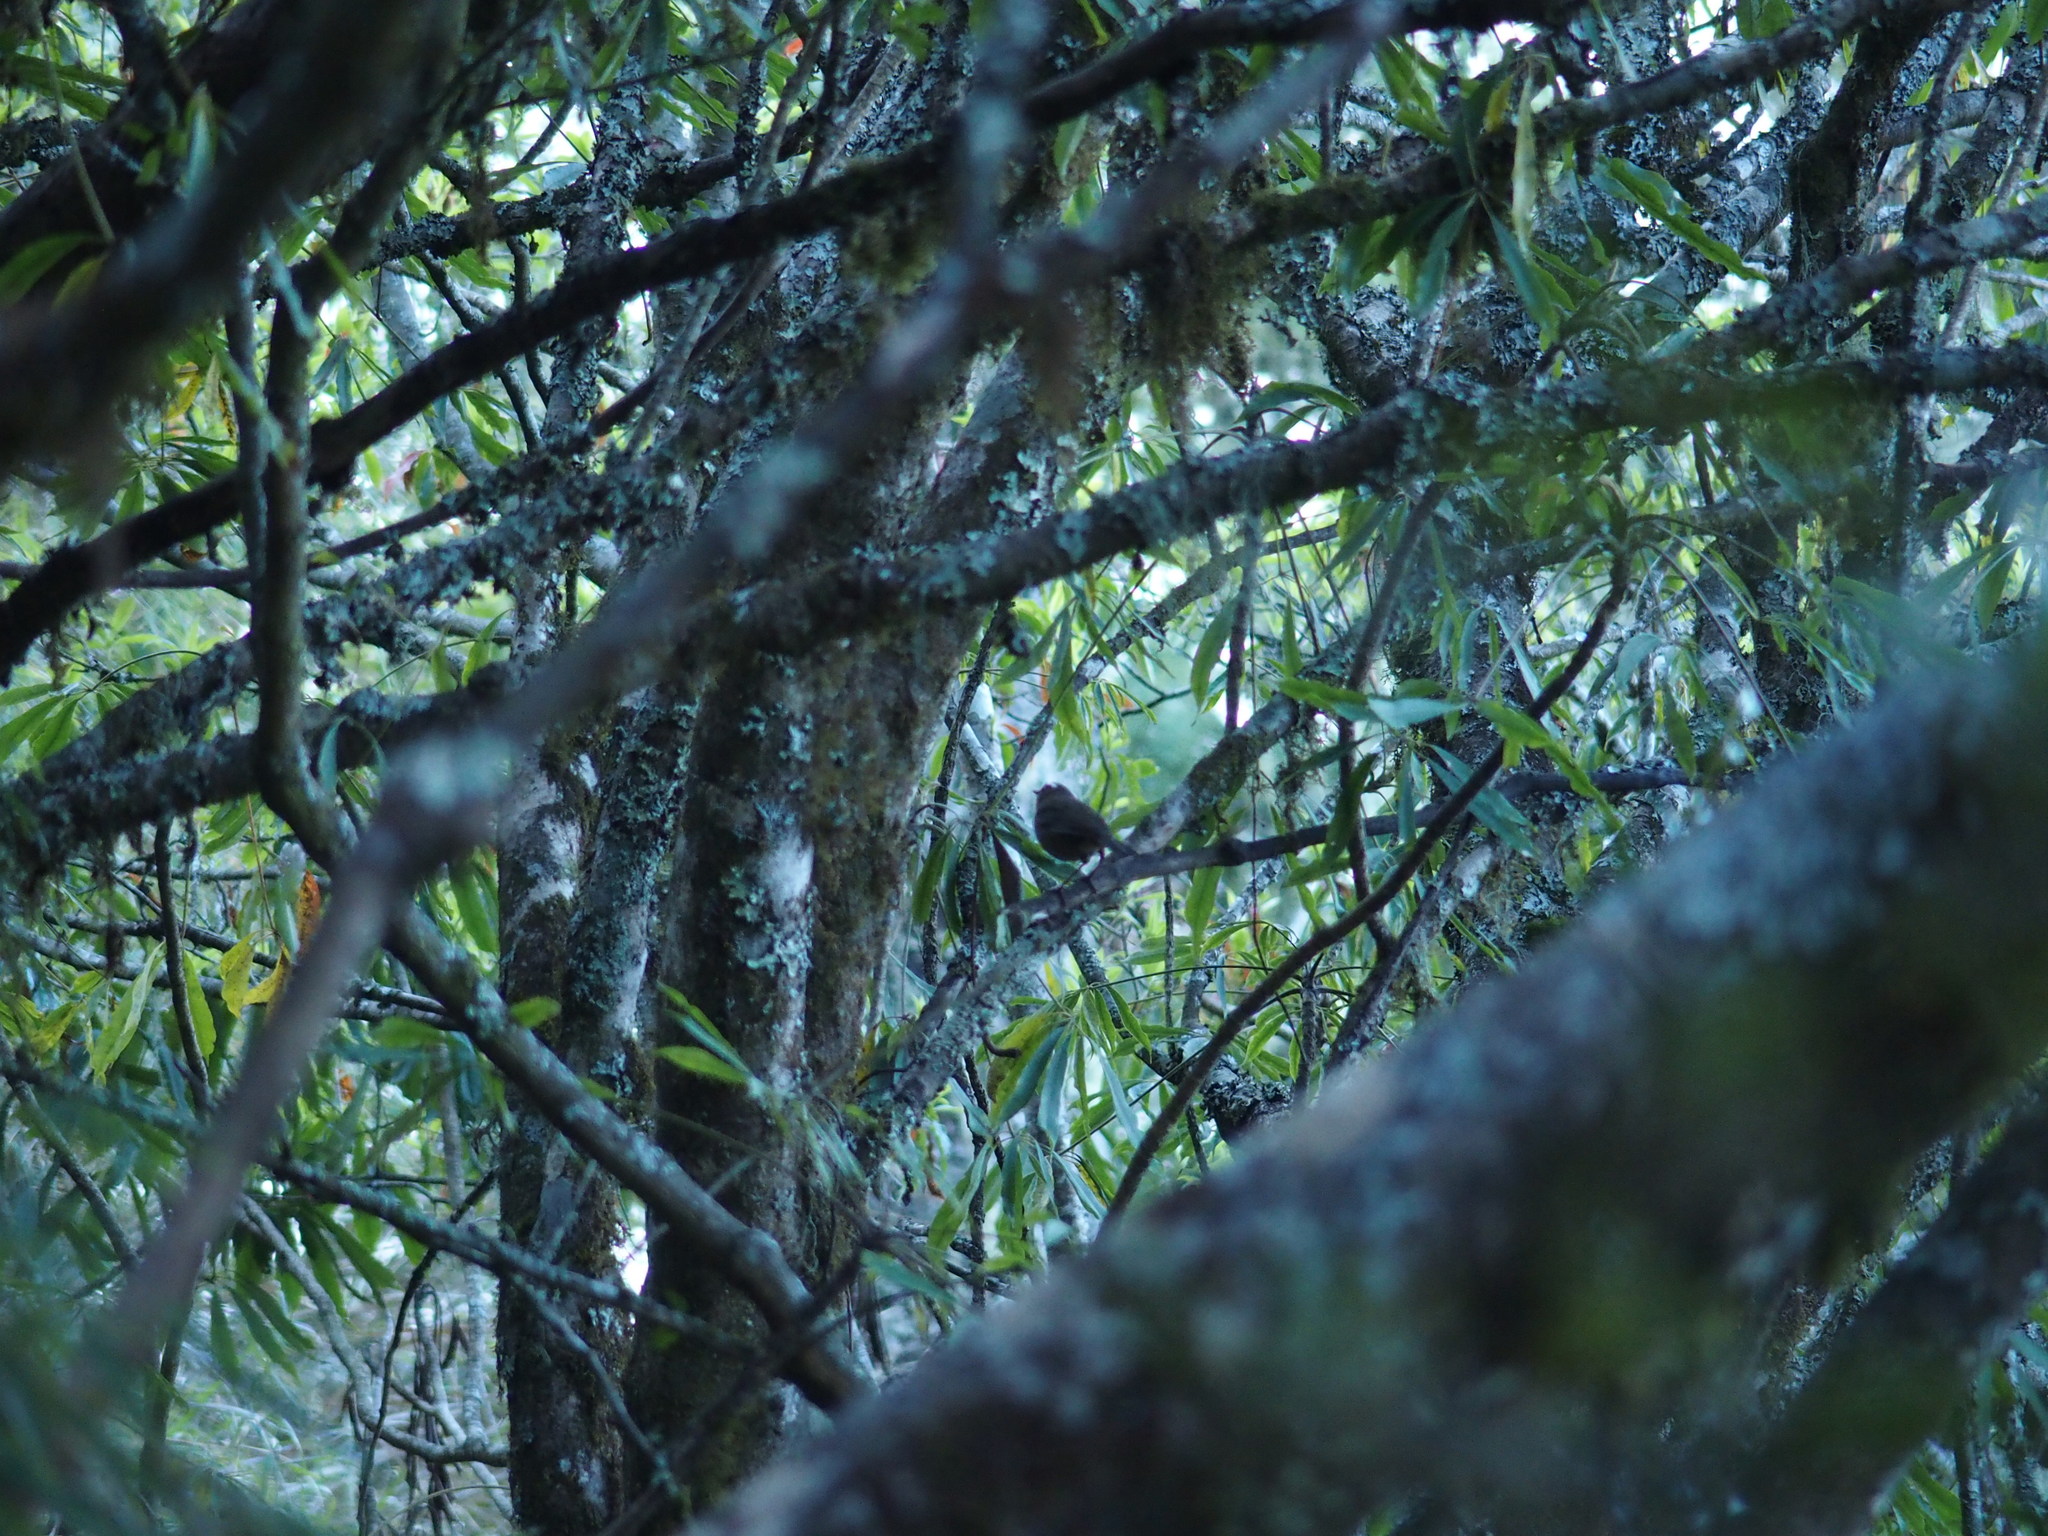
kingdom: Animalia
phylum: Chordata
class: Aves
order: Passeriformes
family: Muscicapidae
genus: Brachypteryx
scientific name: Brachypteryx goodfellowi
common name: Taiwan shortwing
